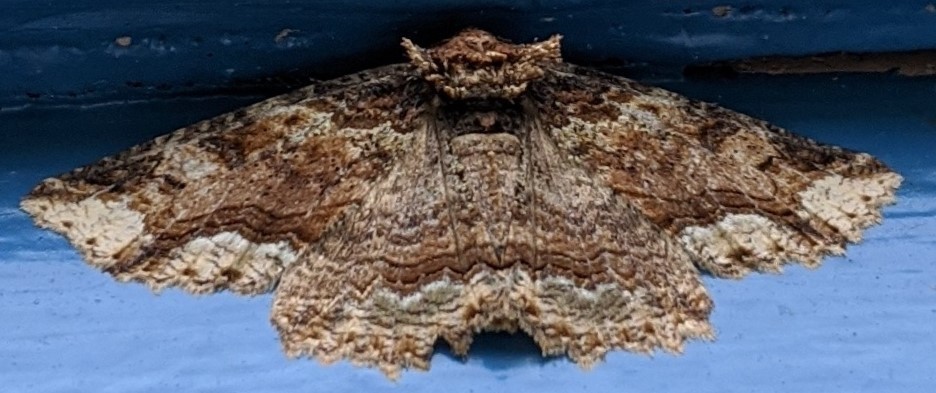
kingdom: Animalia
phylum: Arthropoda
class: Insecta
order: Lepidoptera
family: Erebidae
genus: Zale
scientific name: Zale minerea
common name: Colorful zale moth
